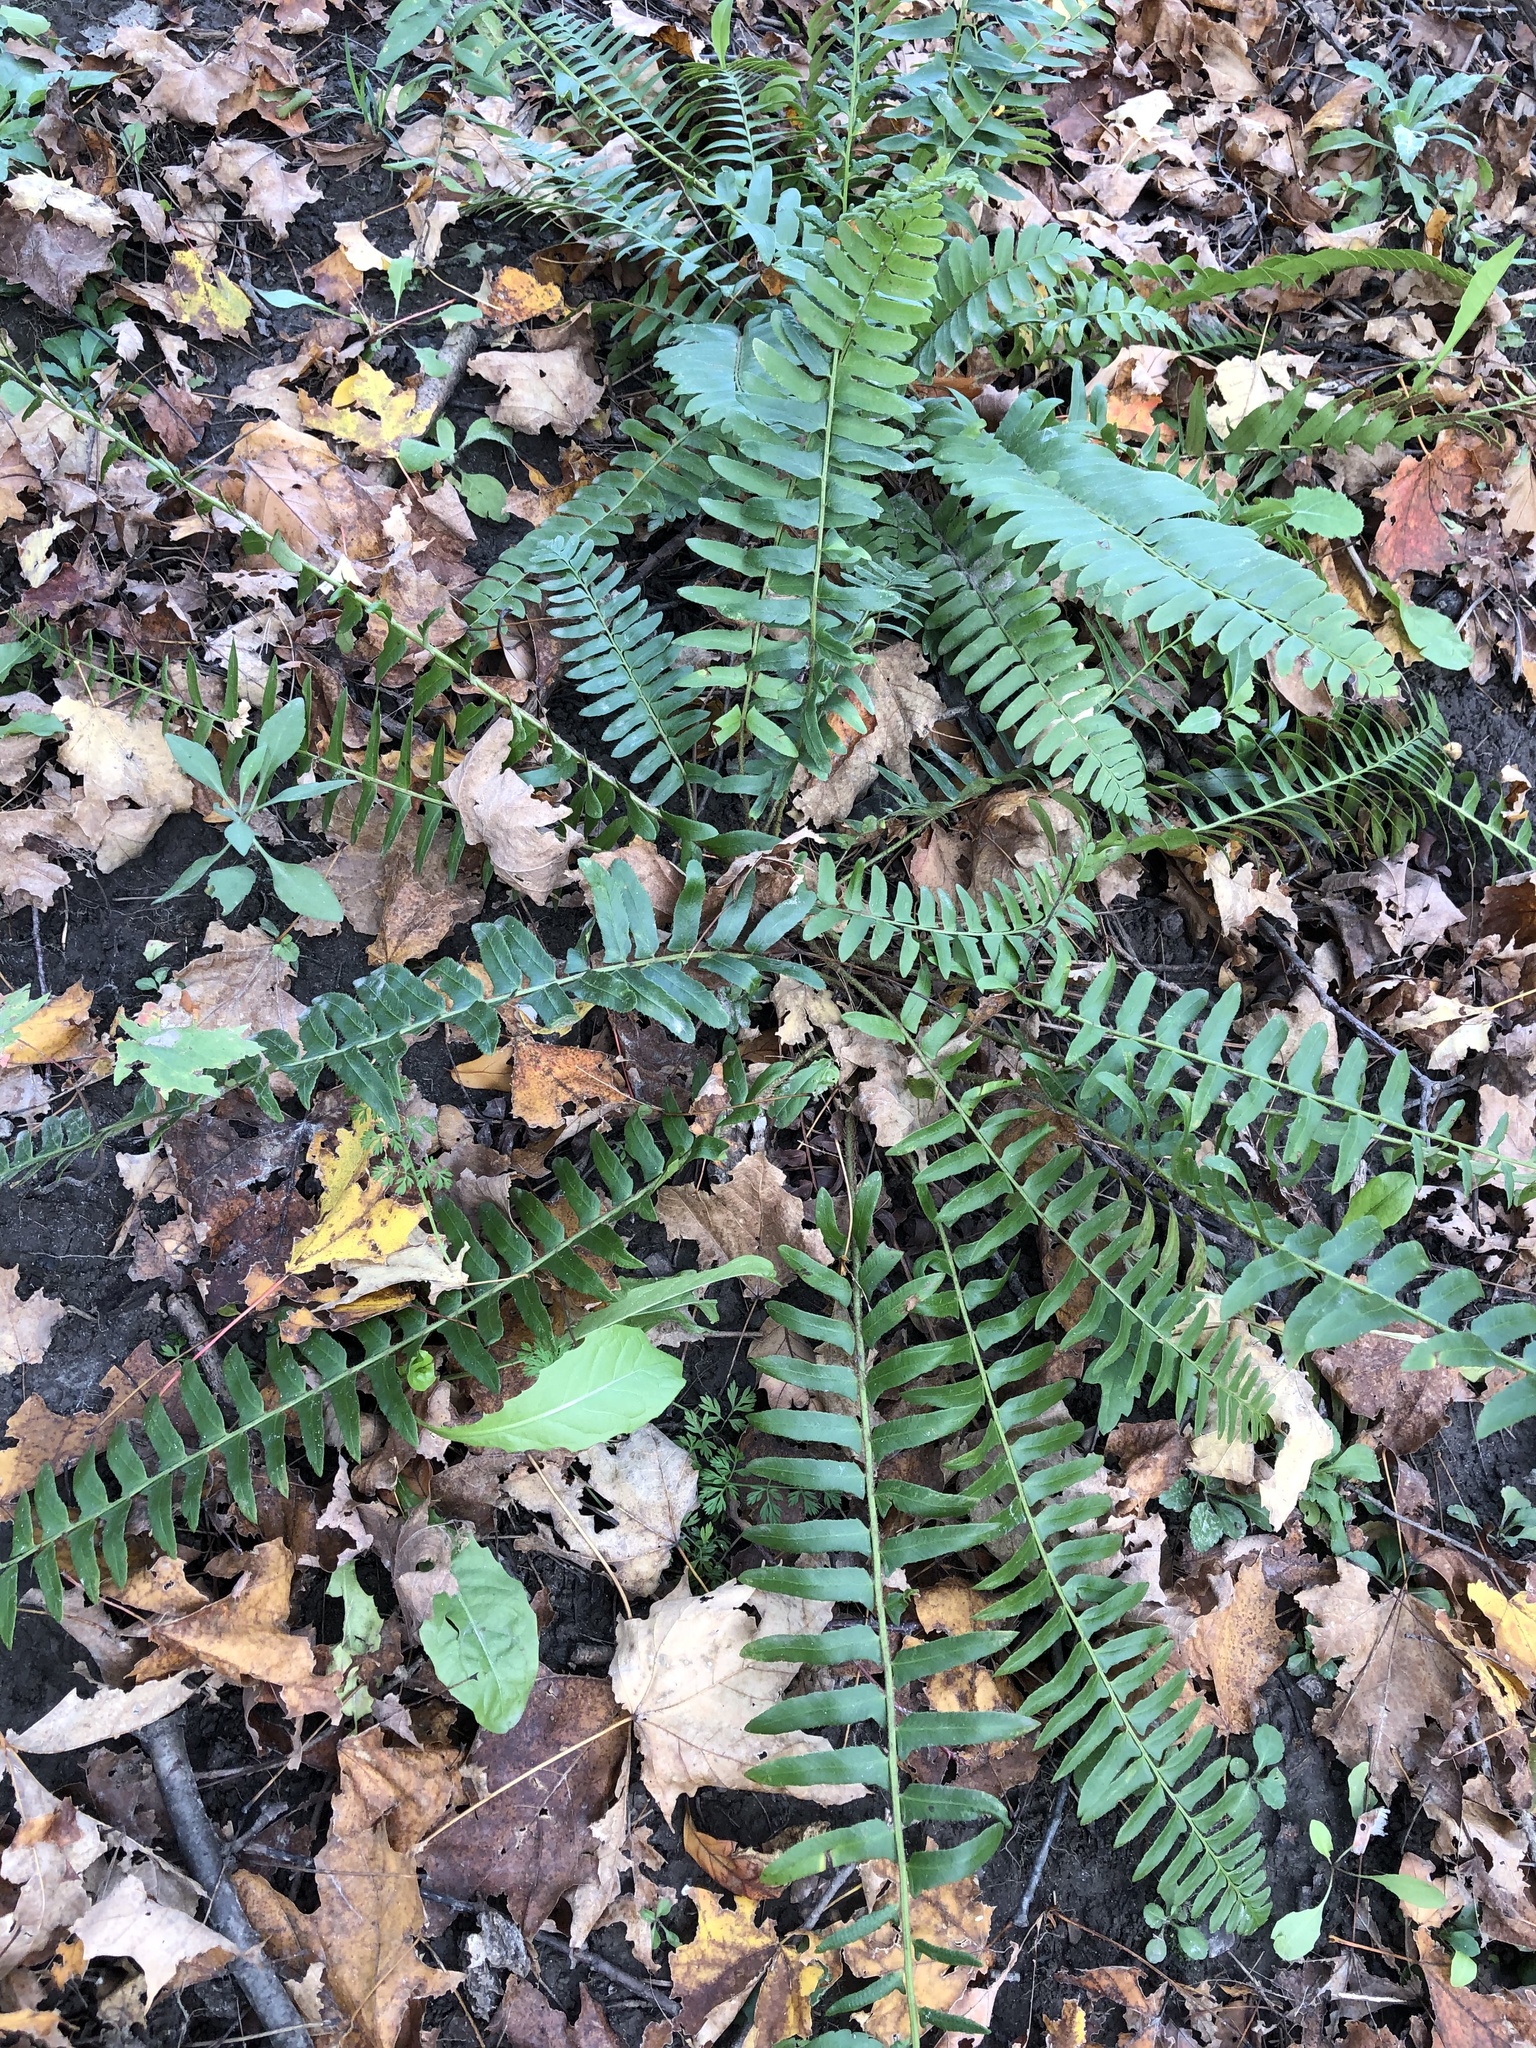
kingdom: Plantae
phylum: Tracheophyta
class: Polypodiopsida
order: Polypodiales
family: Dryopteridaceae
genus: Polystichum
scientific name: Polystichum acrostichoides
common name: Christmas fern
